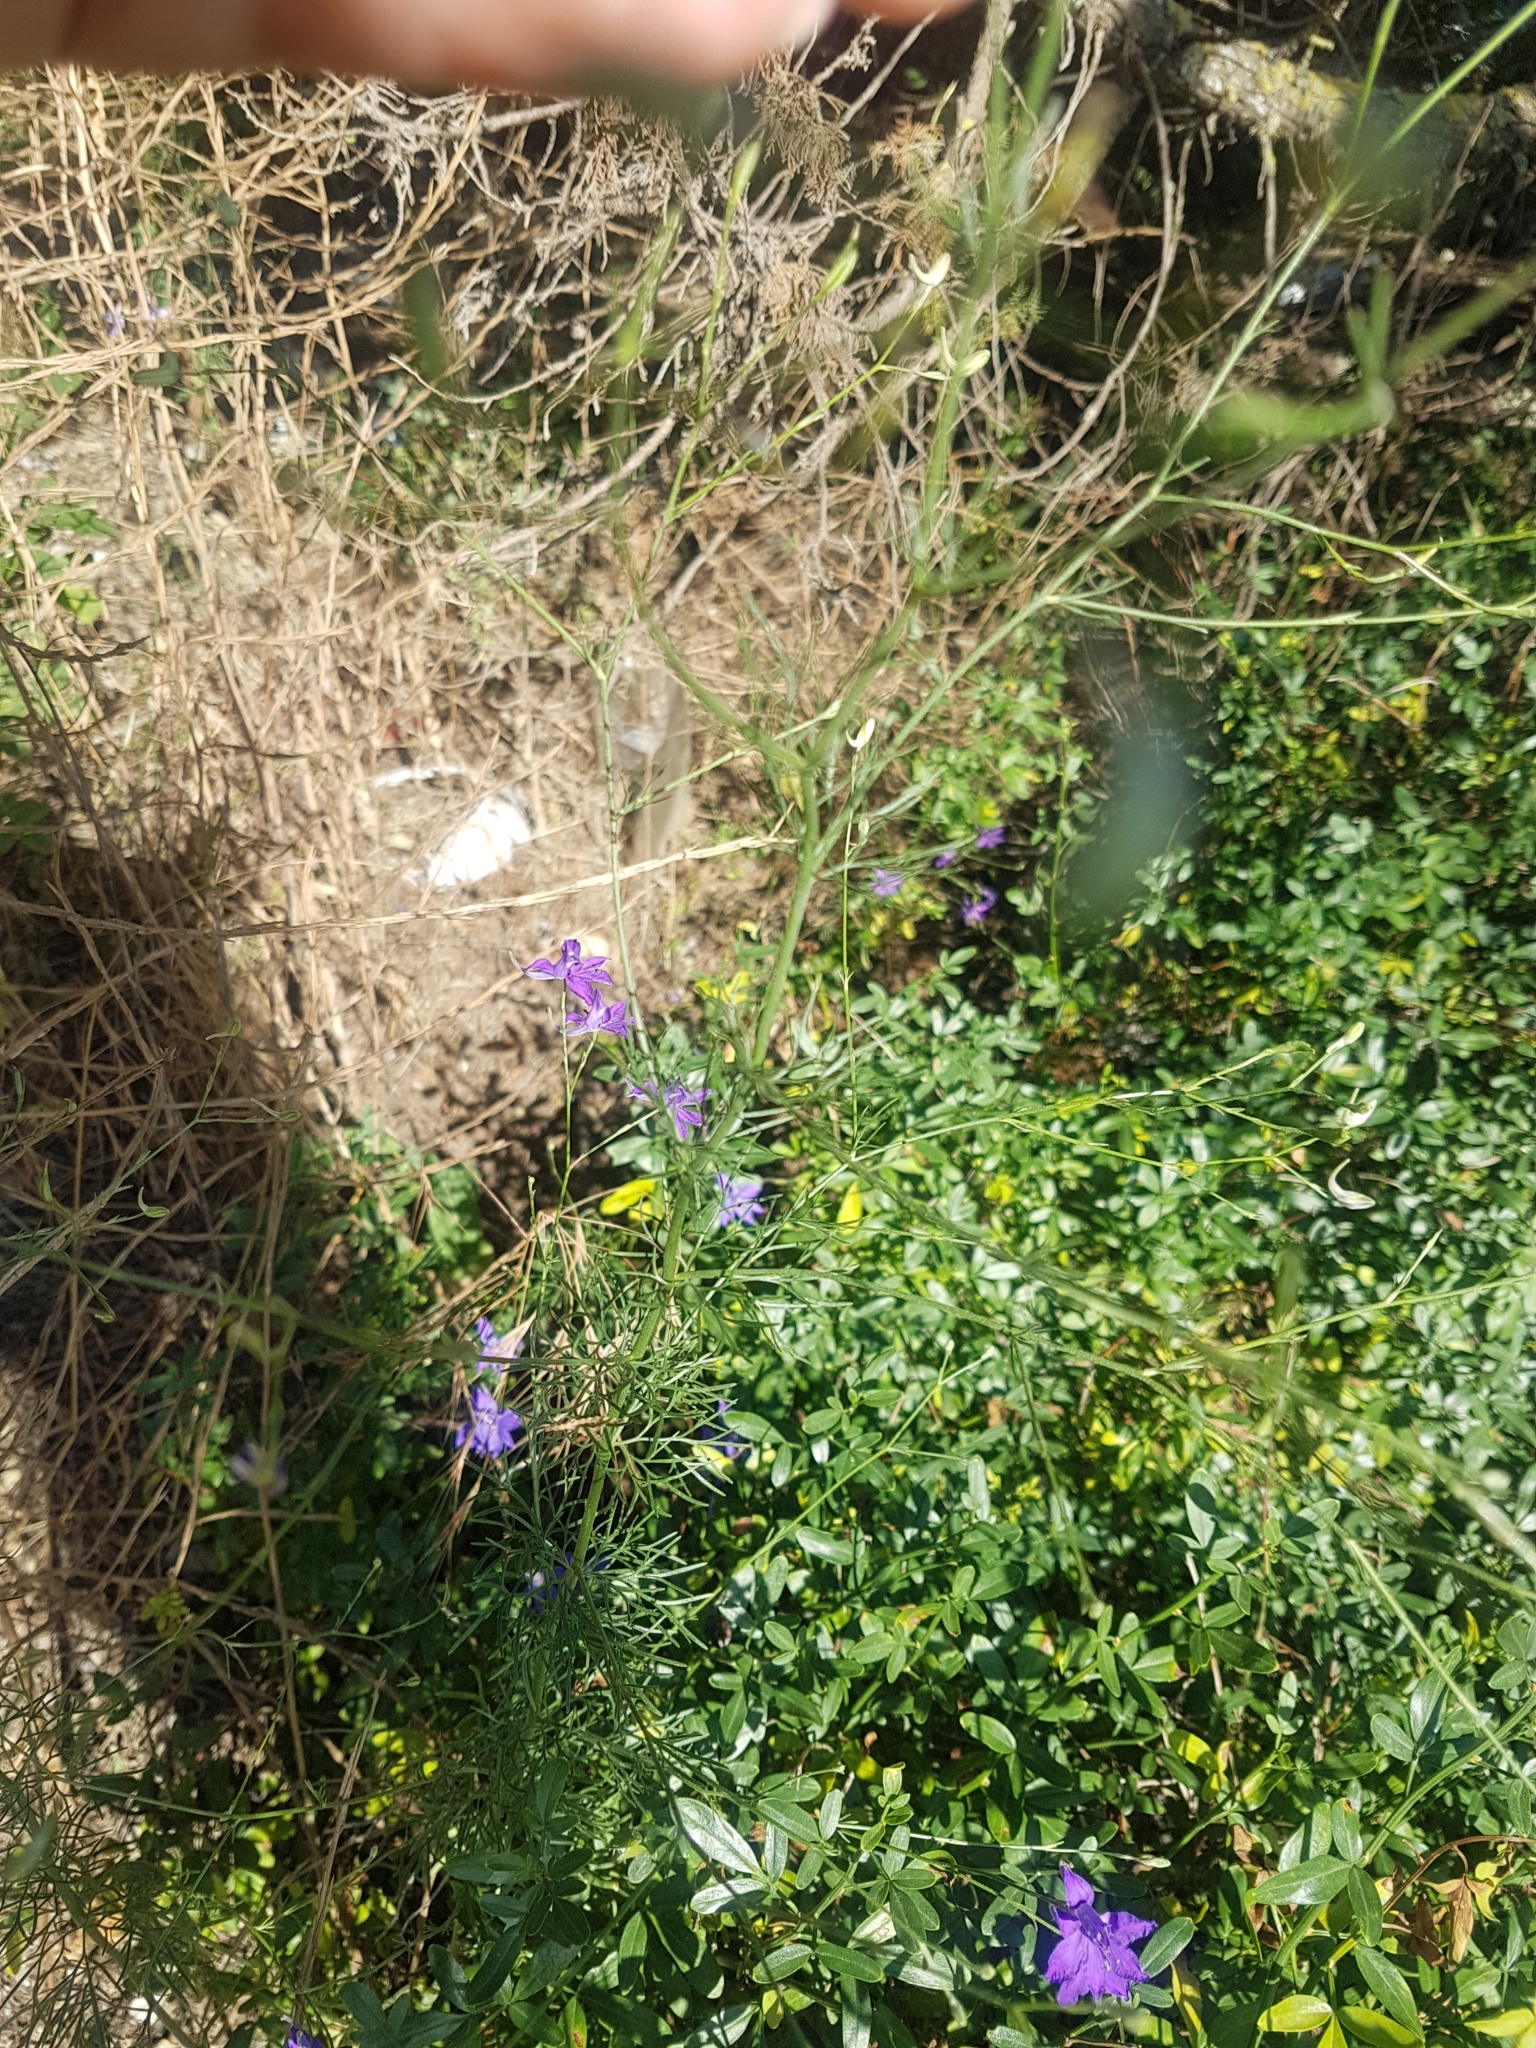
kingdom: Plantae
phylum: Tracheophyta
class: Magnoliopsida
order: Ranunculales
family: Ranunculaceae
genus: Delphinium
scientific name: Delphinium consolida
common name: Branching larkspur
